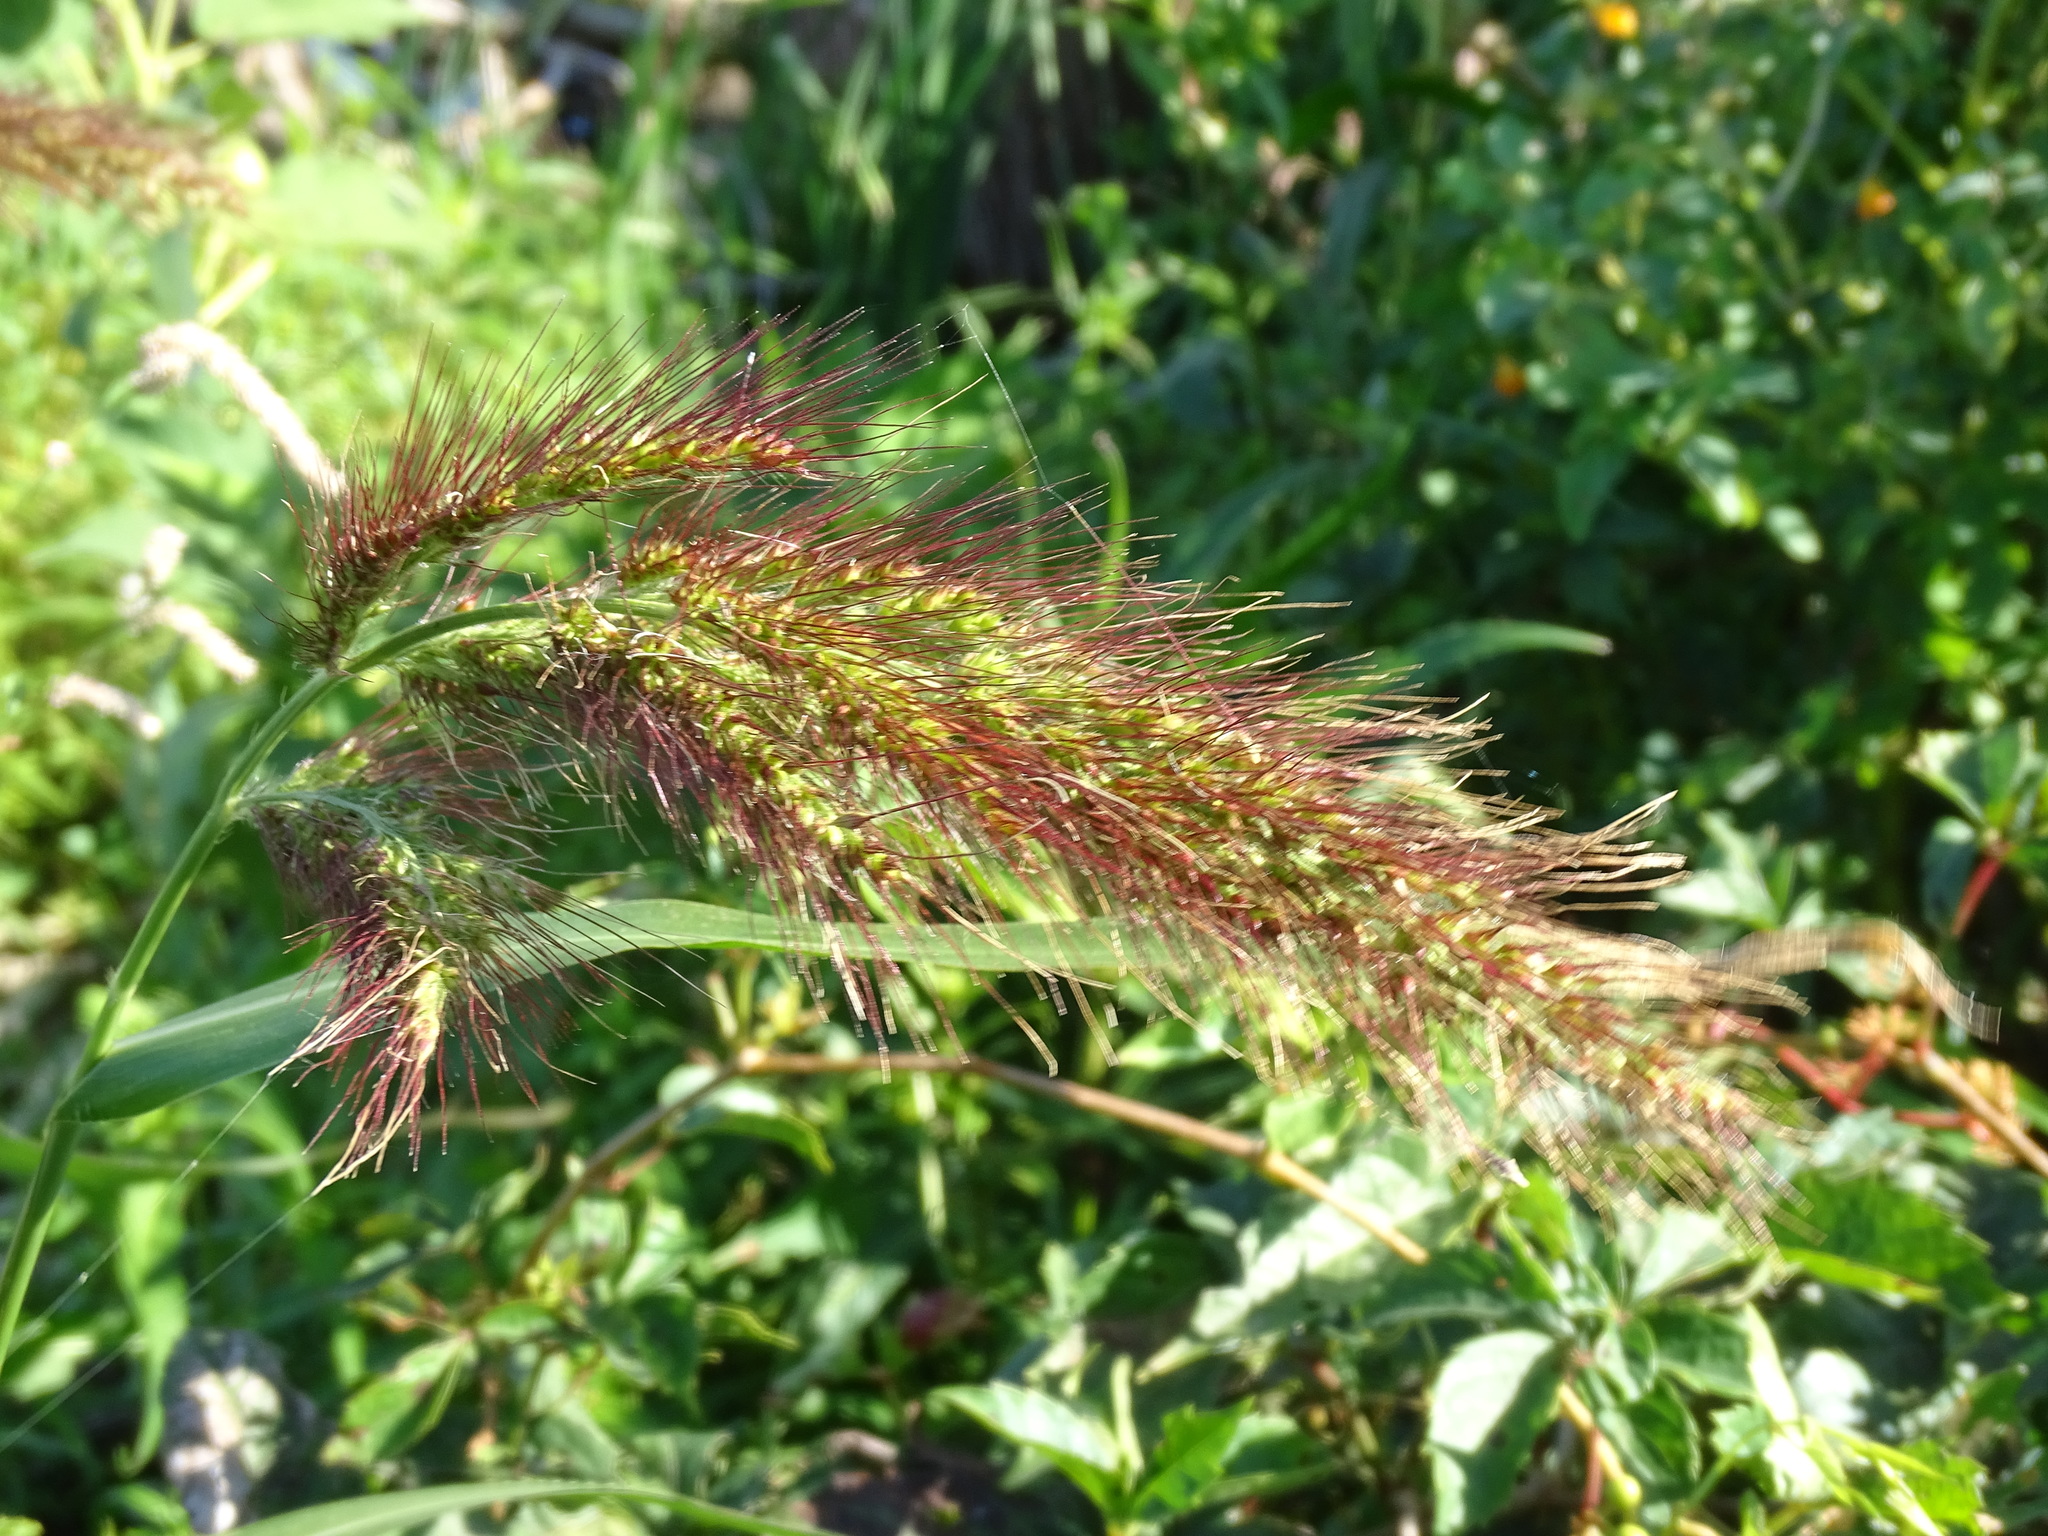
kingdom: Plantae
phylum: Tracheophyta
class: Liliopsida
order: Poales
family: Poaceae
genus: Echinochloa
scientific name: Echinochloa walteri
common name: Coast barnyard grass
